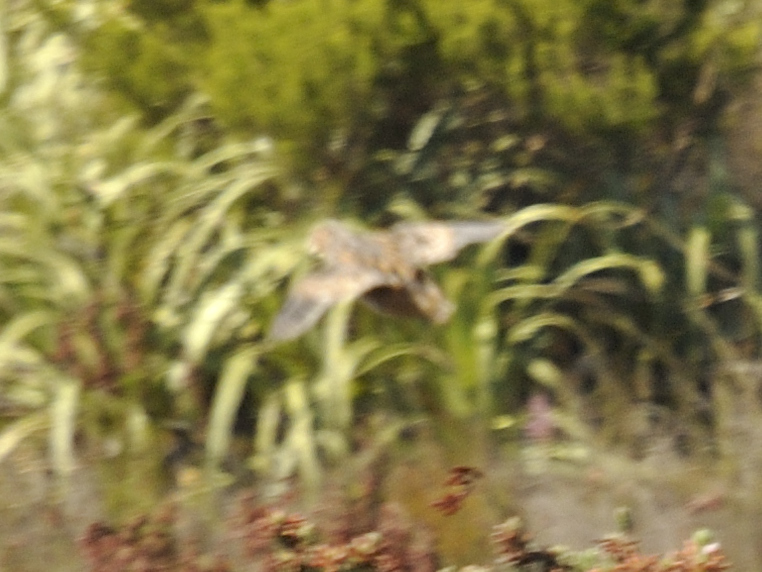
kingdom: Animalia
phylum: Chordata
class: Aves
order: Charadriiformes
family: Turnicidae
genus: Turnix
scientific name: Turnix hottentottus
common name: Hottentot buttonquail
